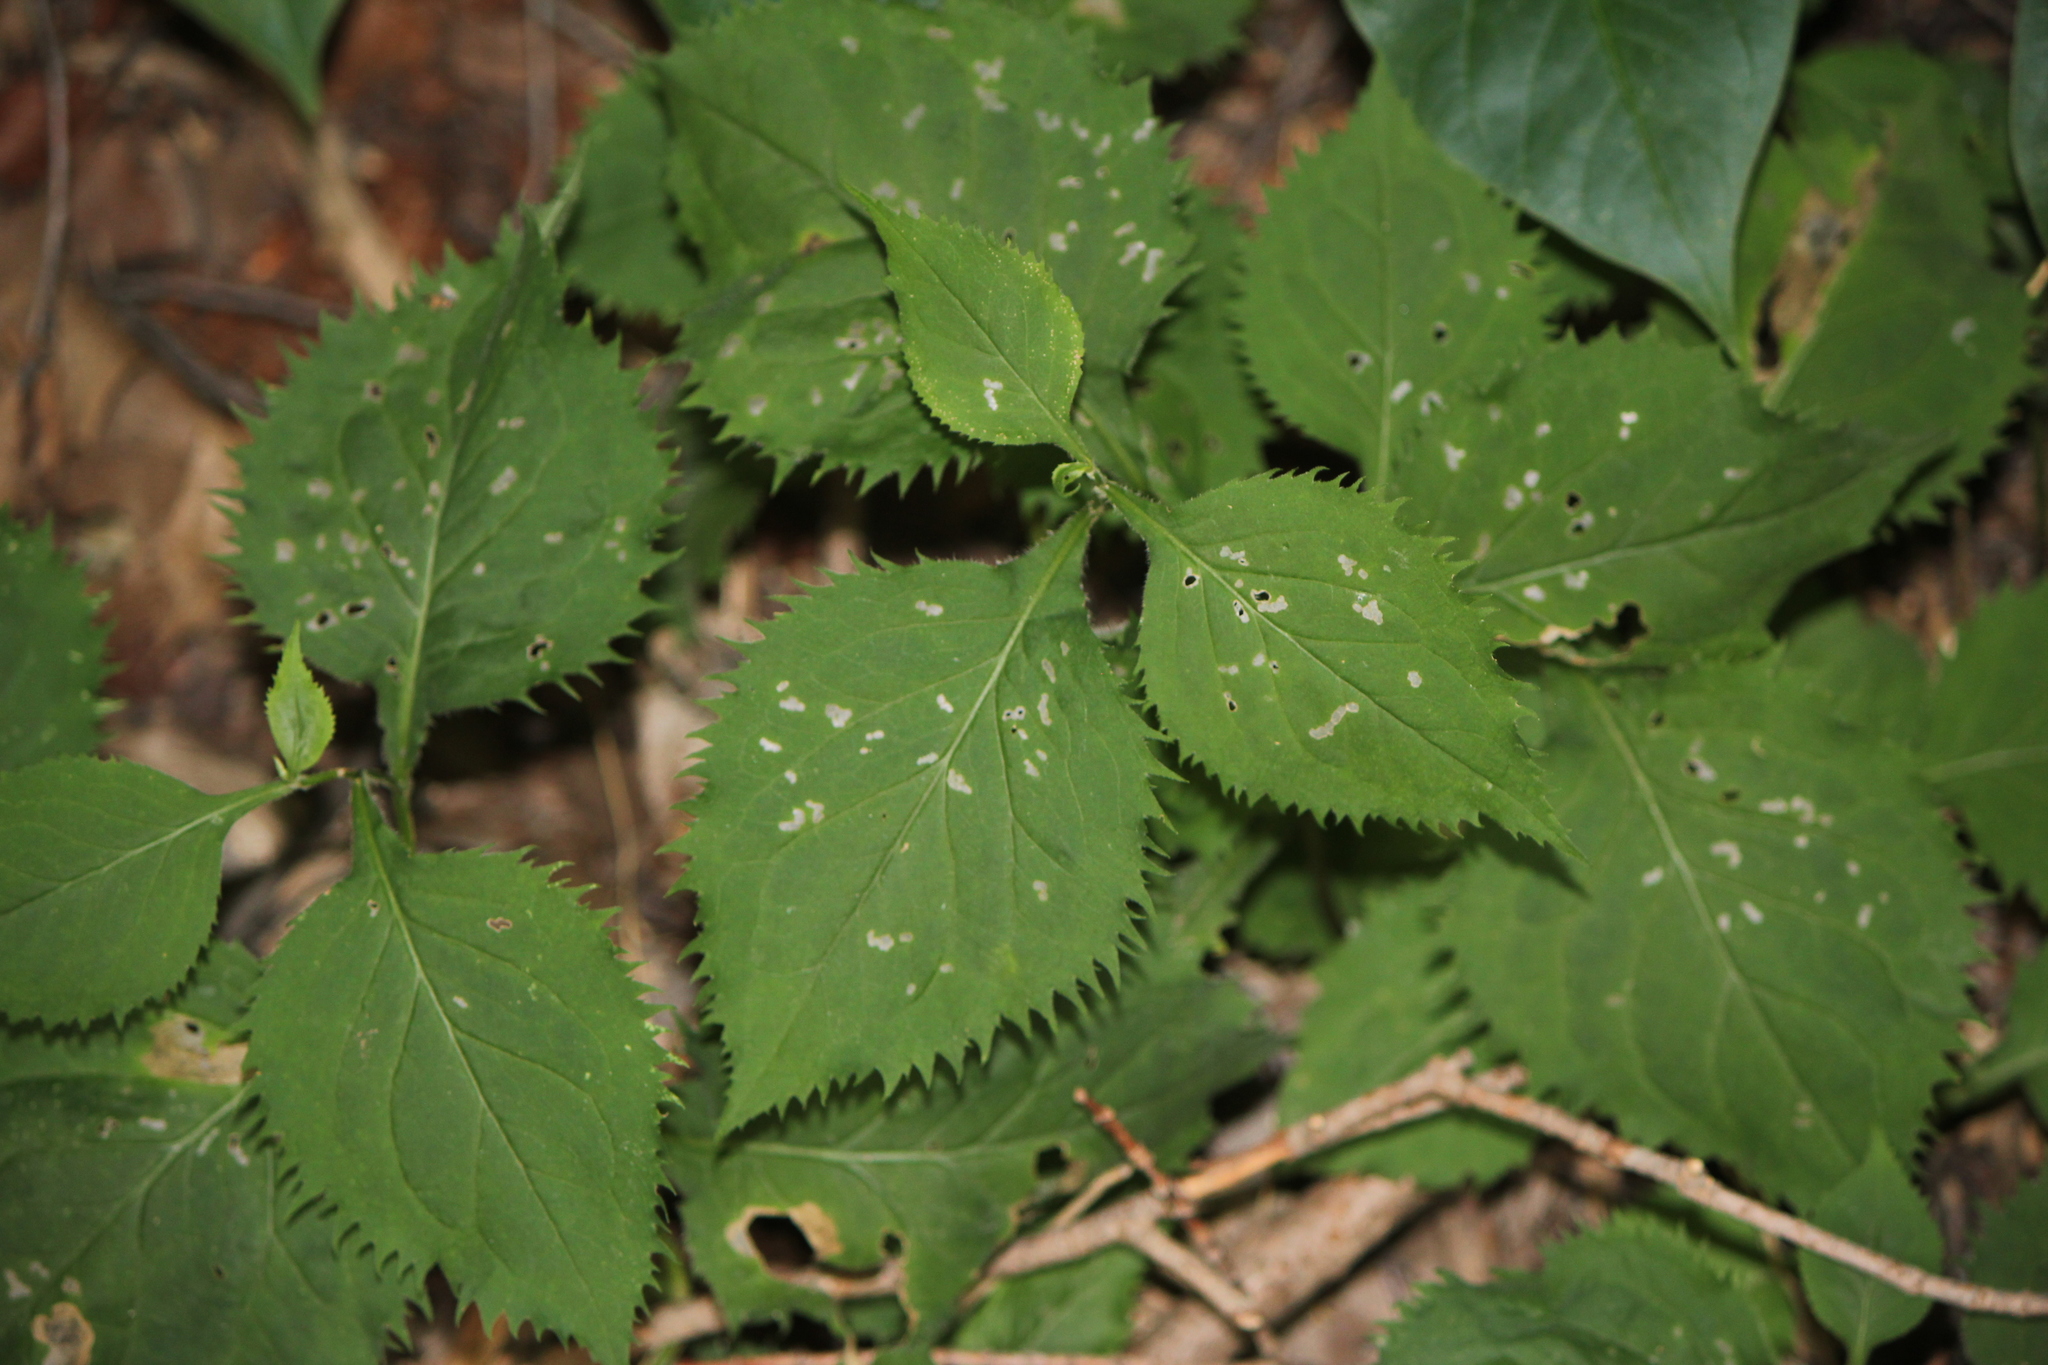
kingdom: Plantae
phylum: Tracheophyta
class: Magnoliopsida
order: Asterales
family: Asteraceae
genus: Solidago
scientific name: Solidago flexicaulis
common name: Zig-zag goldenrod
